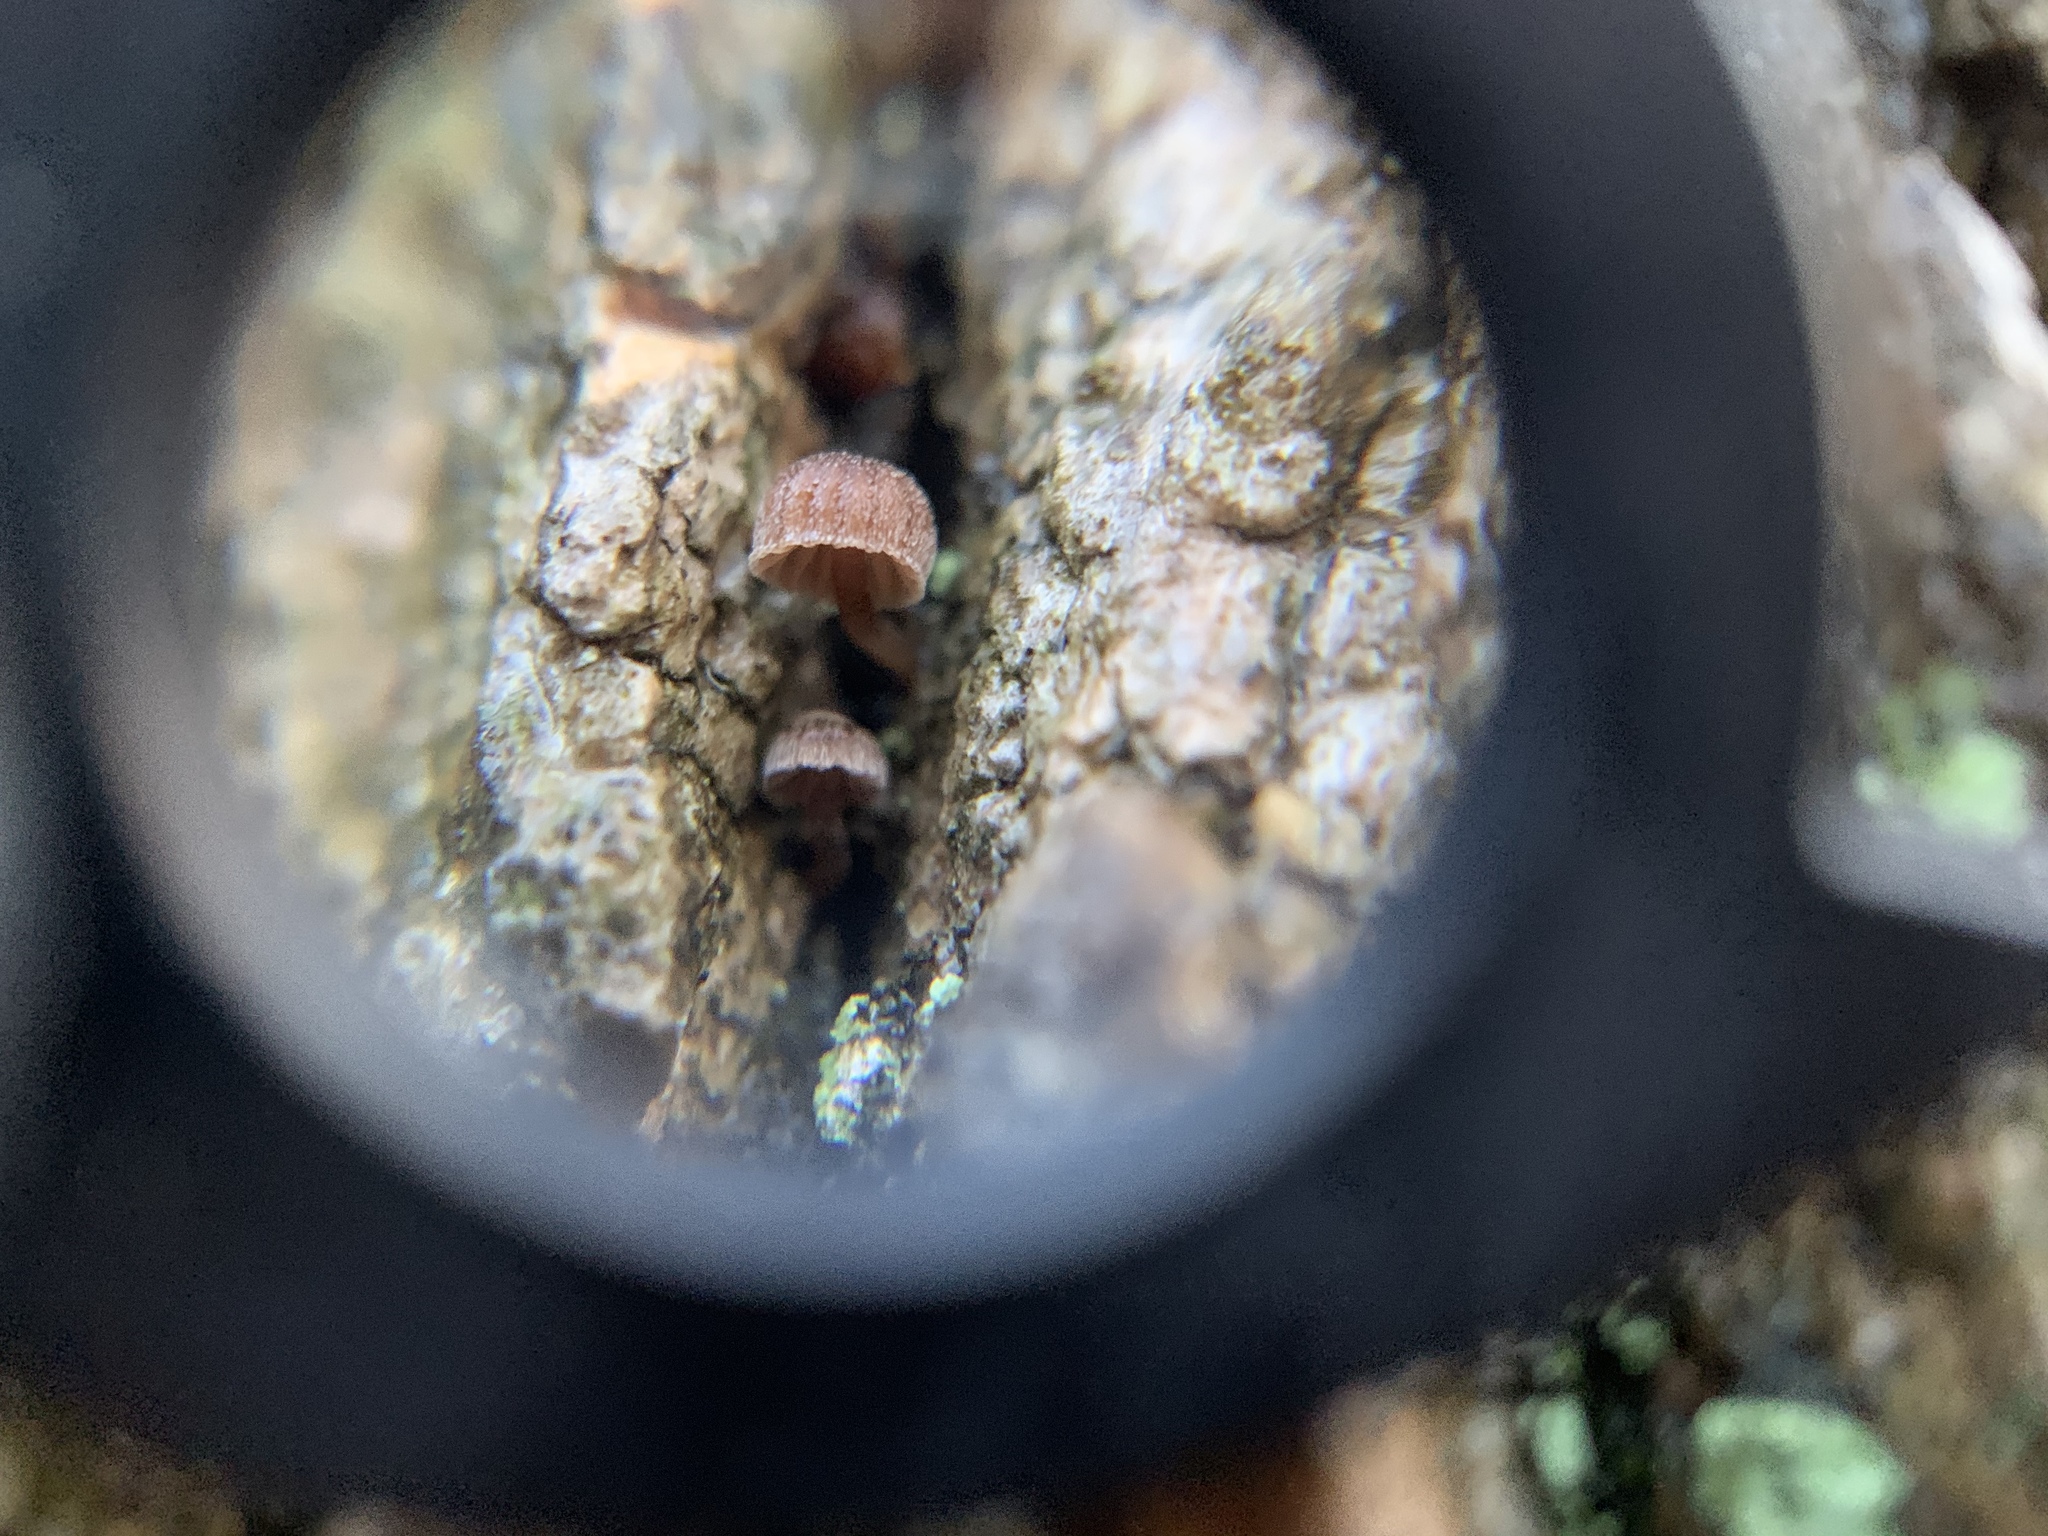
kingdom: Fungi
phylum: Basidiomycota
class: Agaricomycetes
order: Agaricales
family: Mycenaceae
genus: Mycena
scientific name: Mycena corticola
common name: Bark mycena
